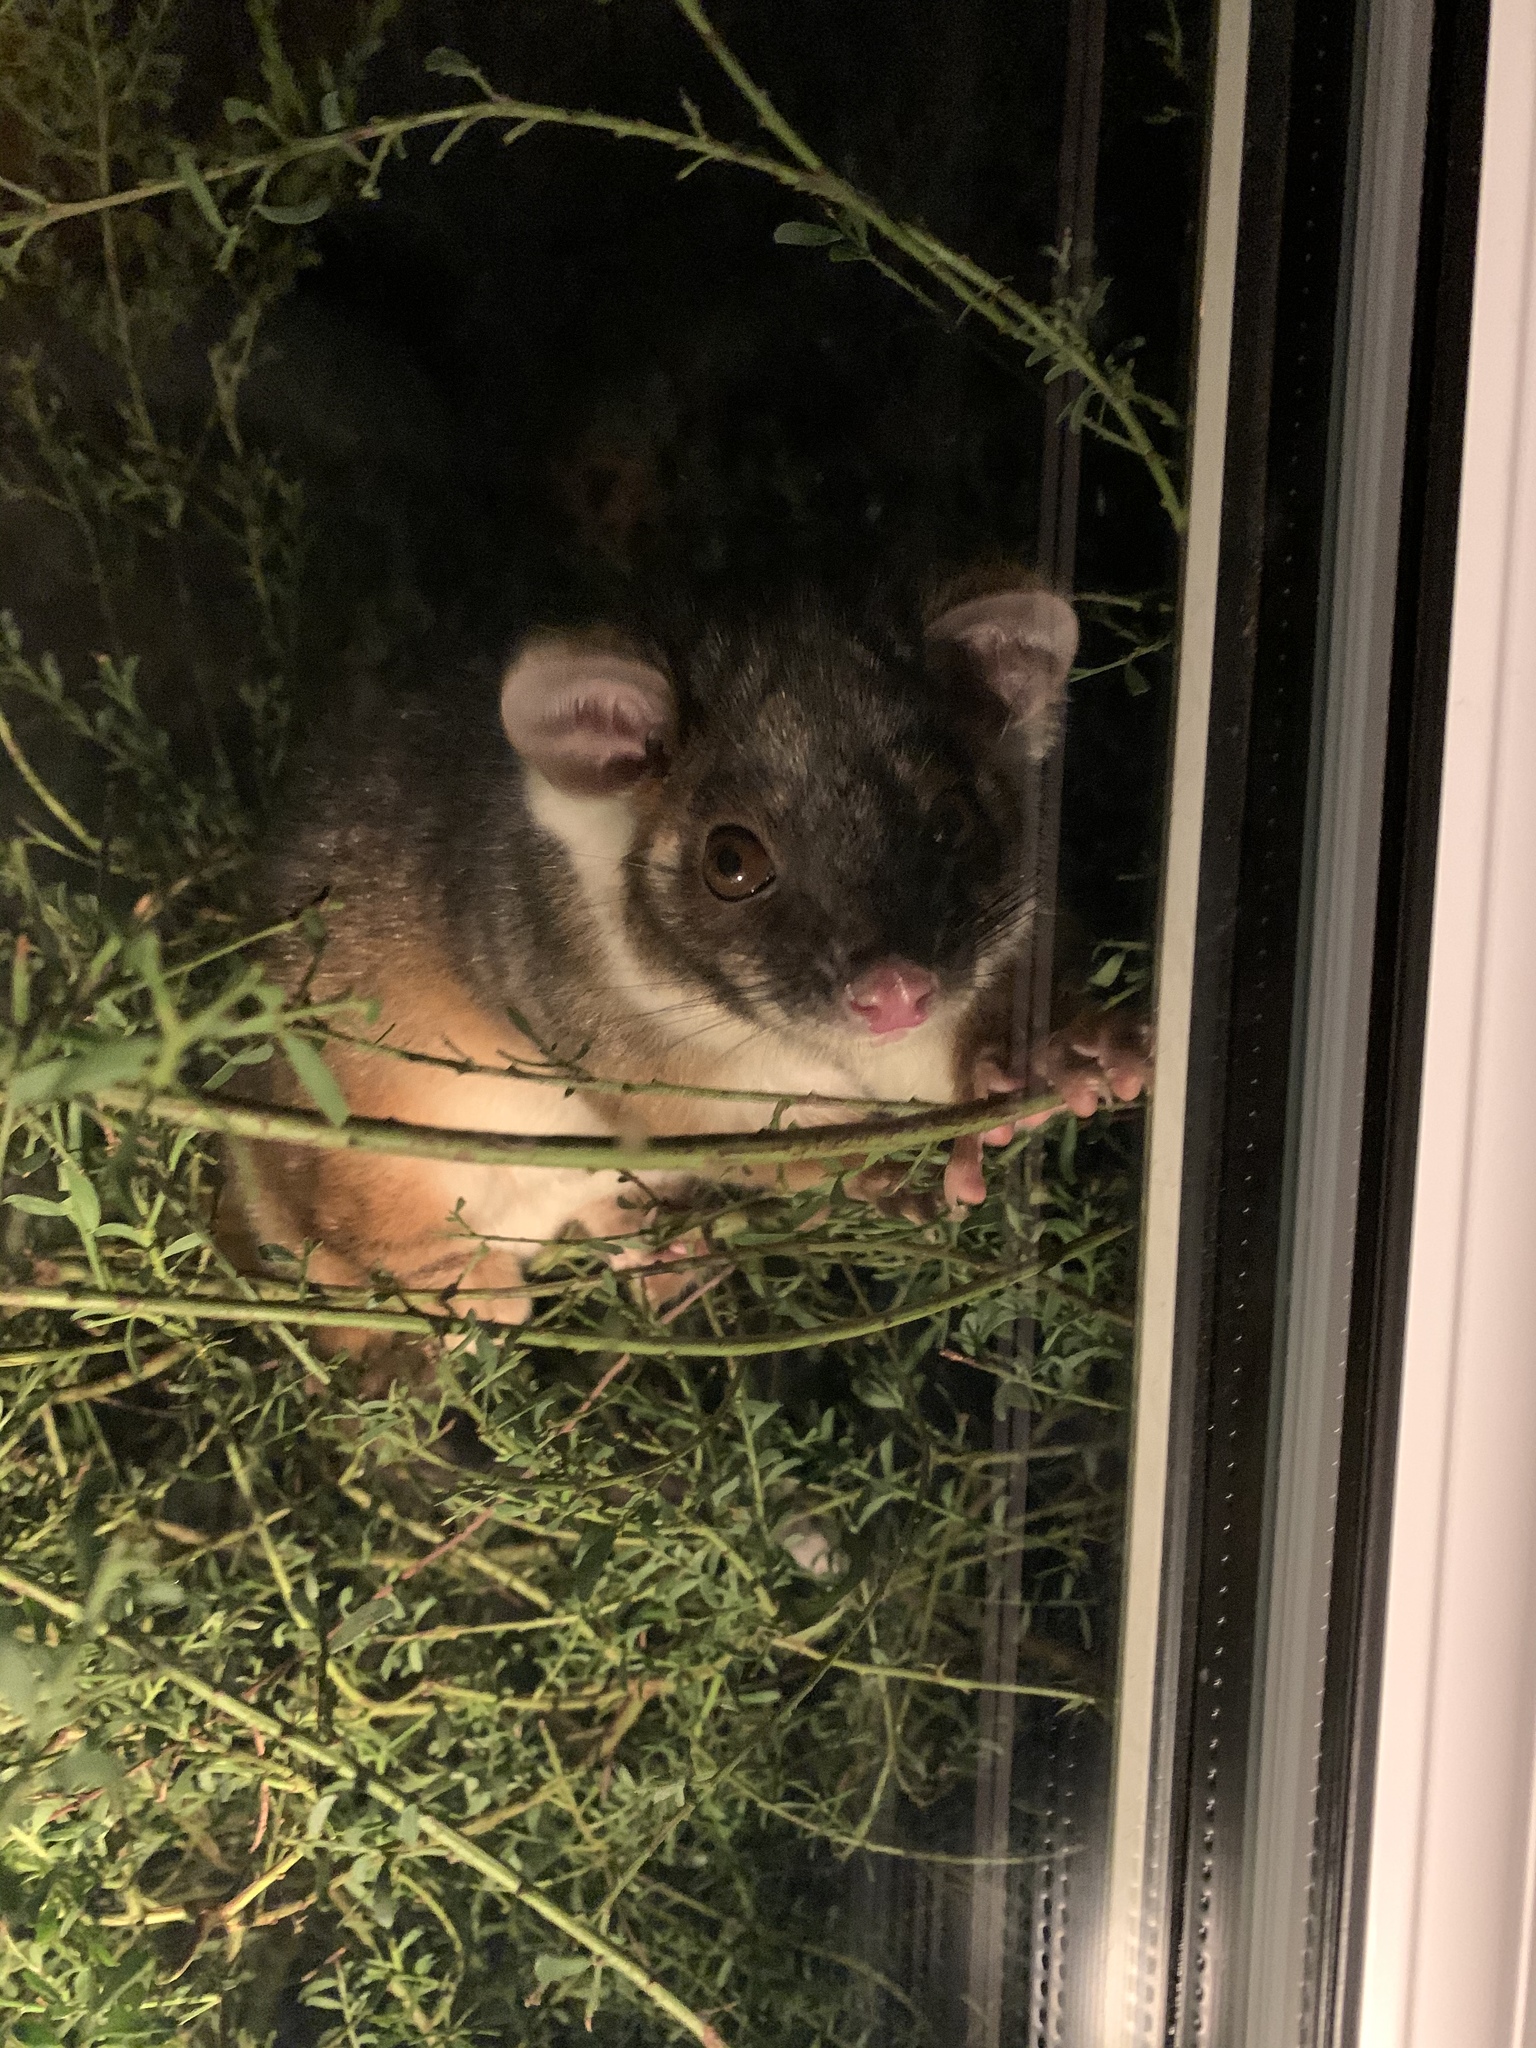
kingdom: Animalia
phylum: Chordata
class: Mammalia
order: Diprotodontia
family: Pseudocheiridae
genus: Pseudocheirus
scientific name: Pseudocheirus peregrinus
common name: Common ringtail possum
